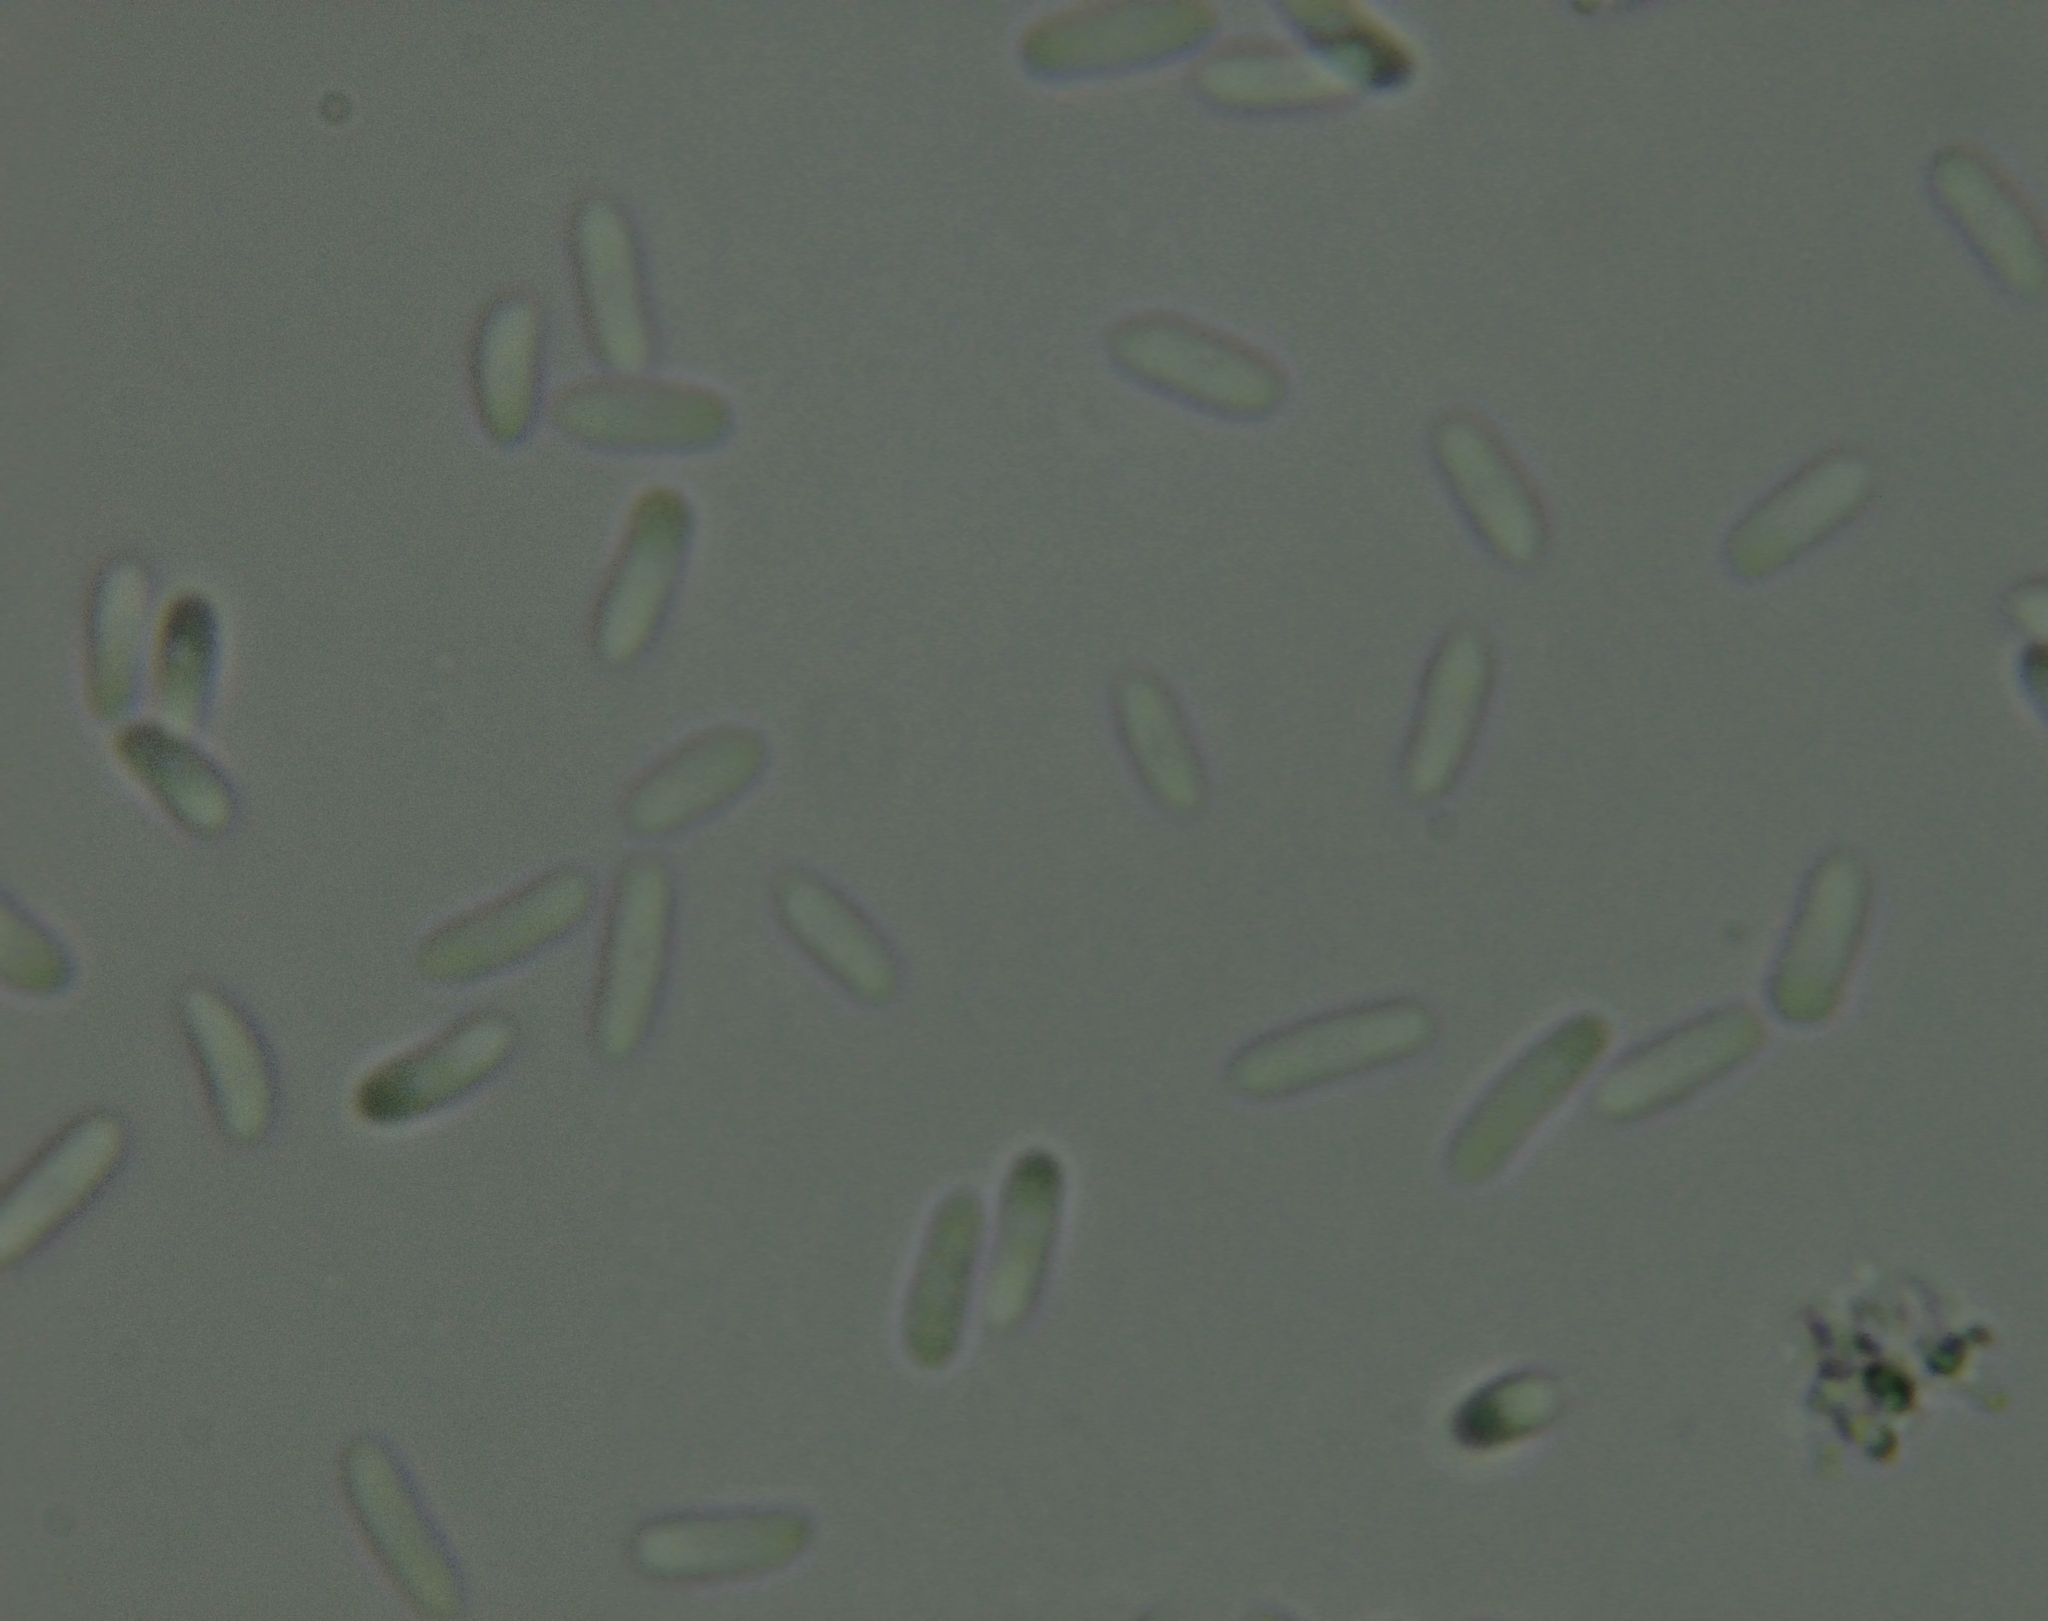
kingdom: Fungi
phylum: Ascomycota
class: Sordariomycetes
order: Hypocreales
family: Nectriaceae
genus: Nectria
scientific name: Nectria cinnabarina
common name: Coral spot
